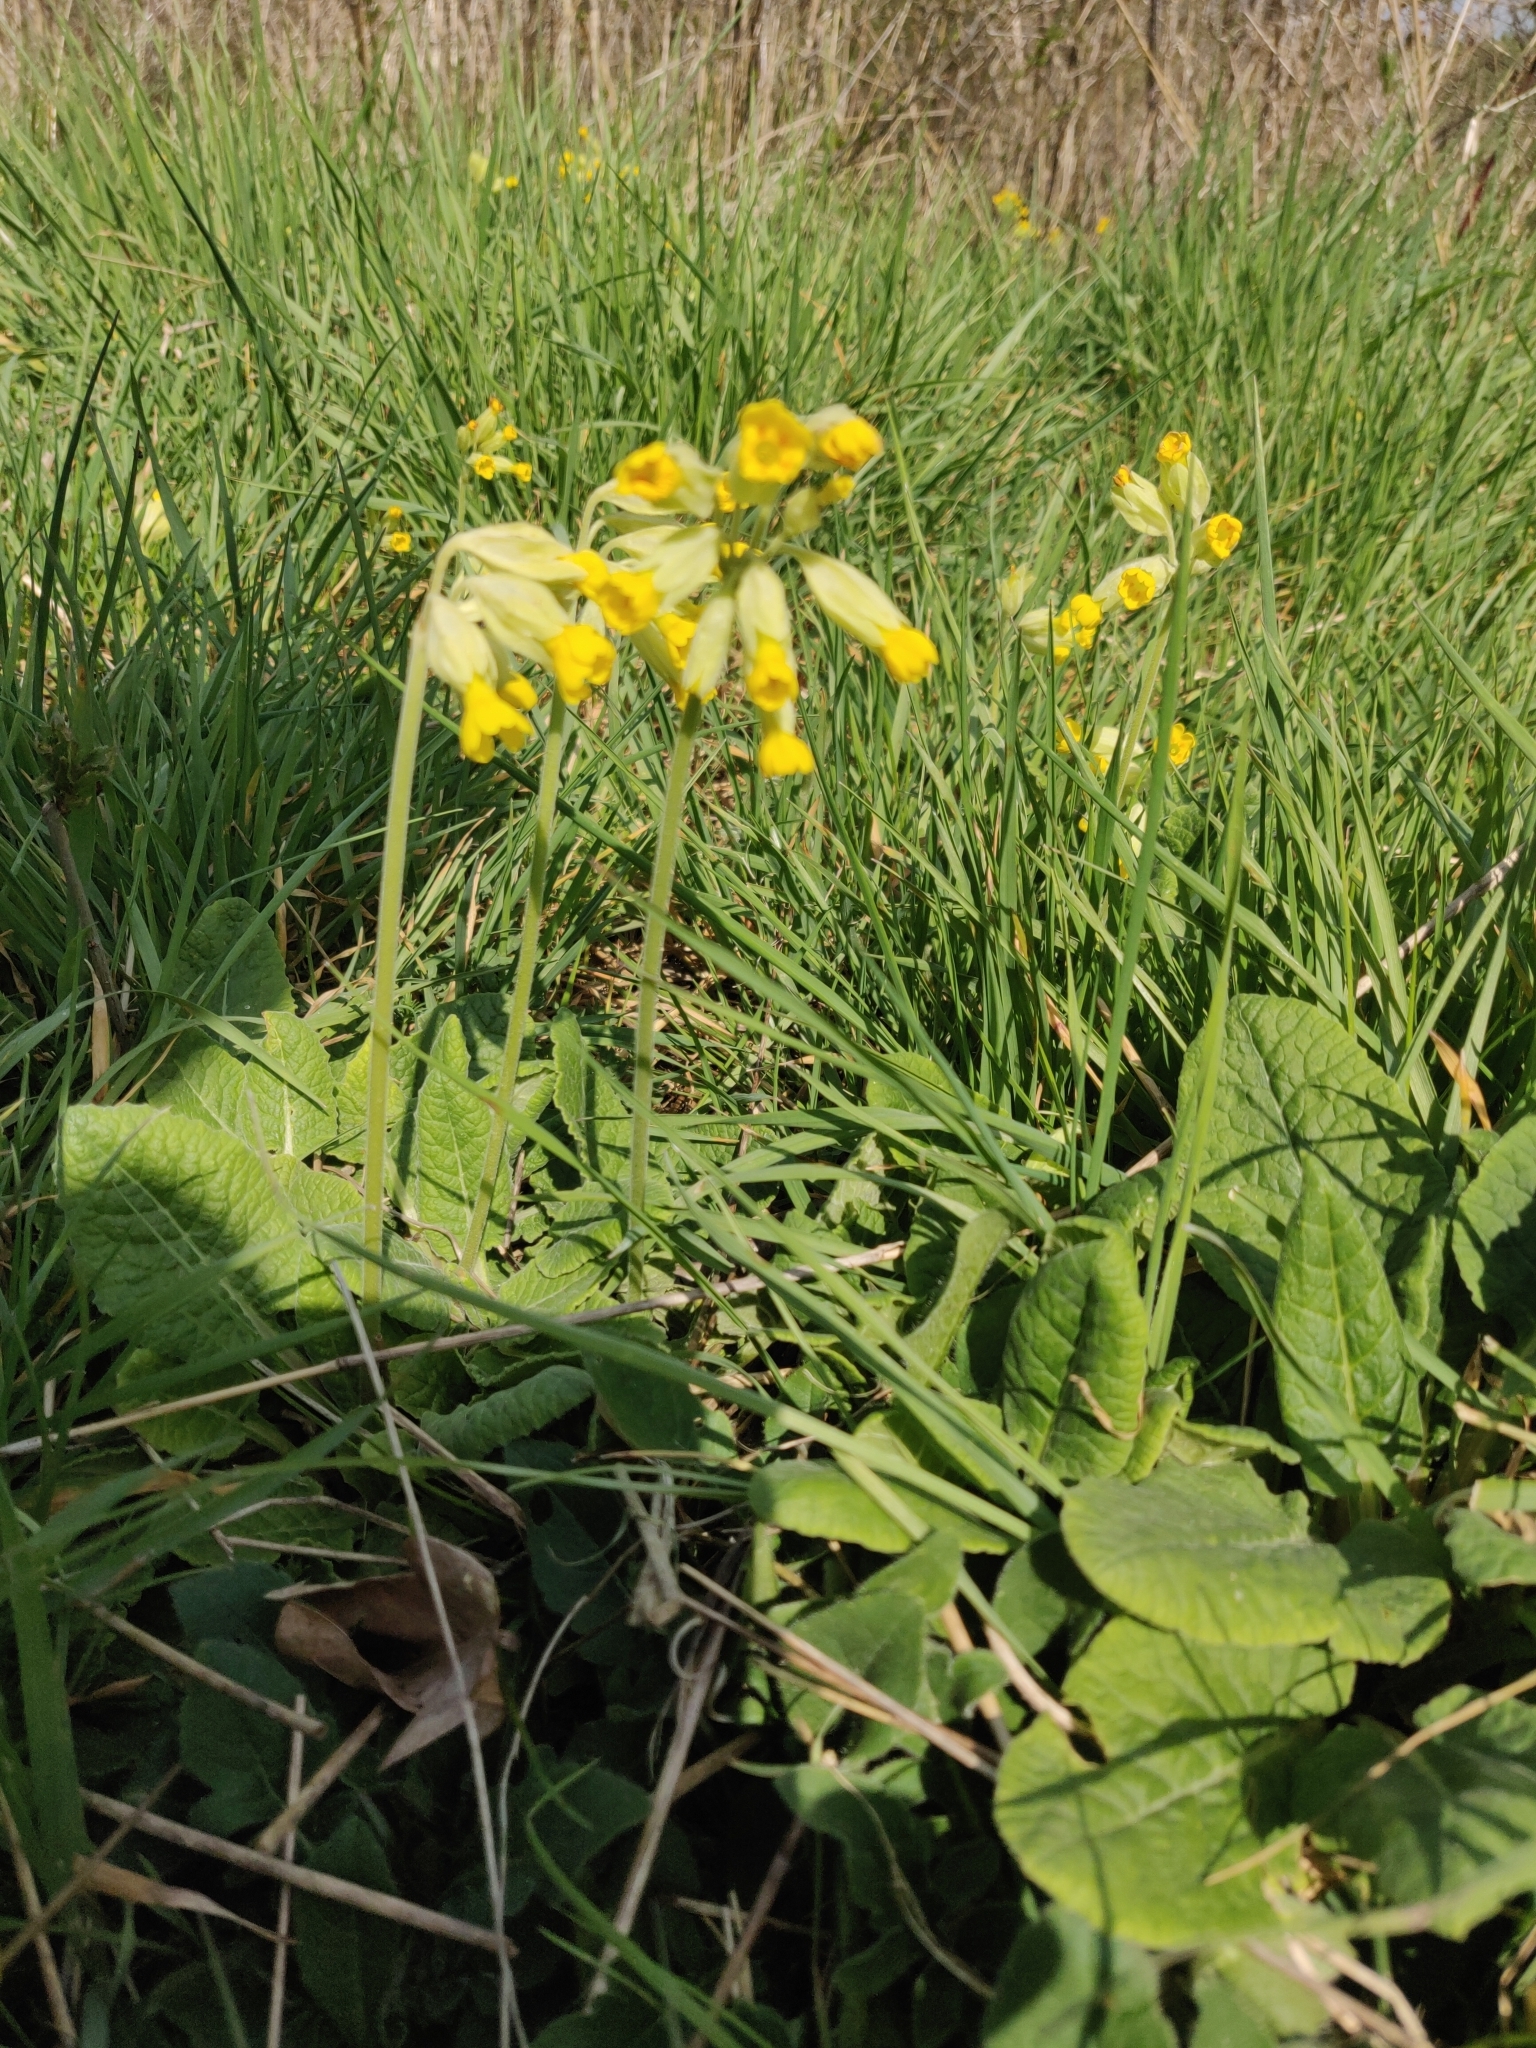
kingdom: Plantae
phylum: Tracheophyta
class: Magnoliopsida
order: Ericales
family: Primulaceae
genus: Primula
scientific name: Primula veris
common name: Cowslip
